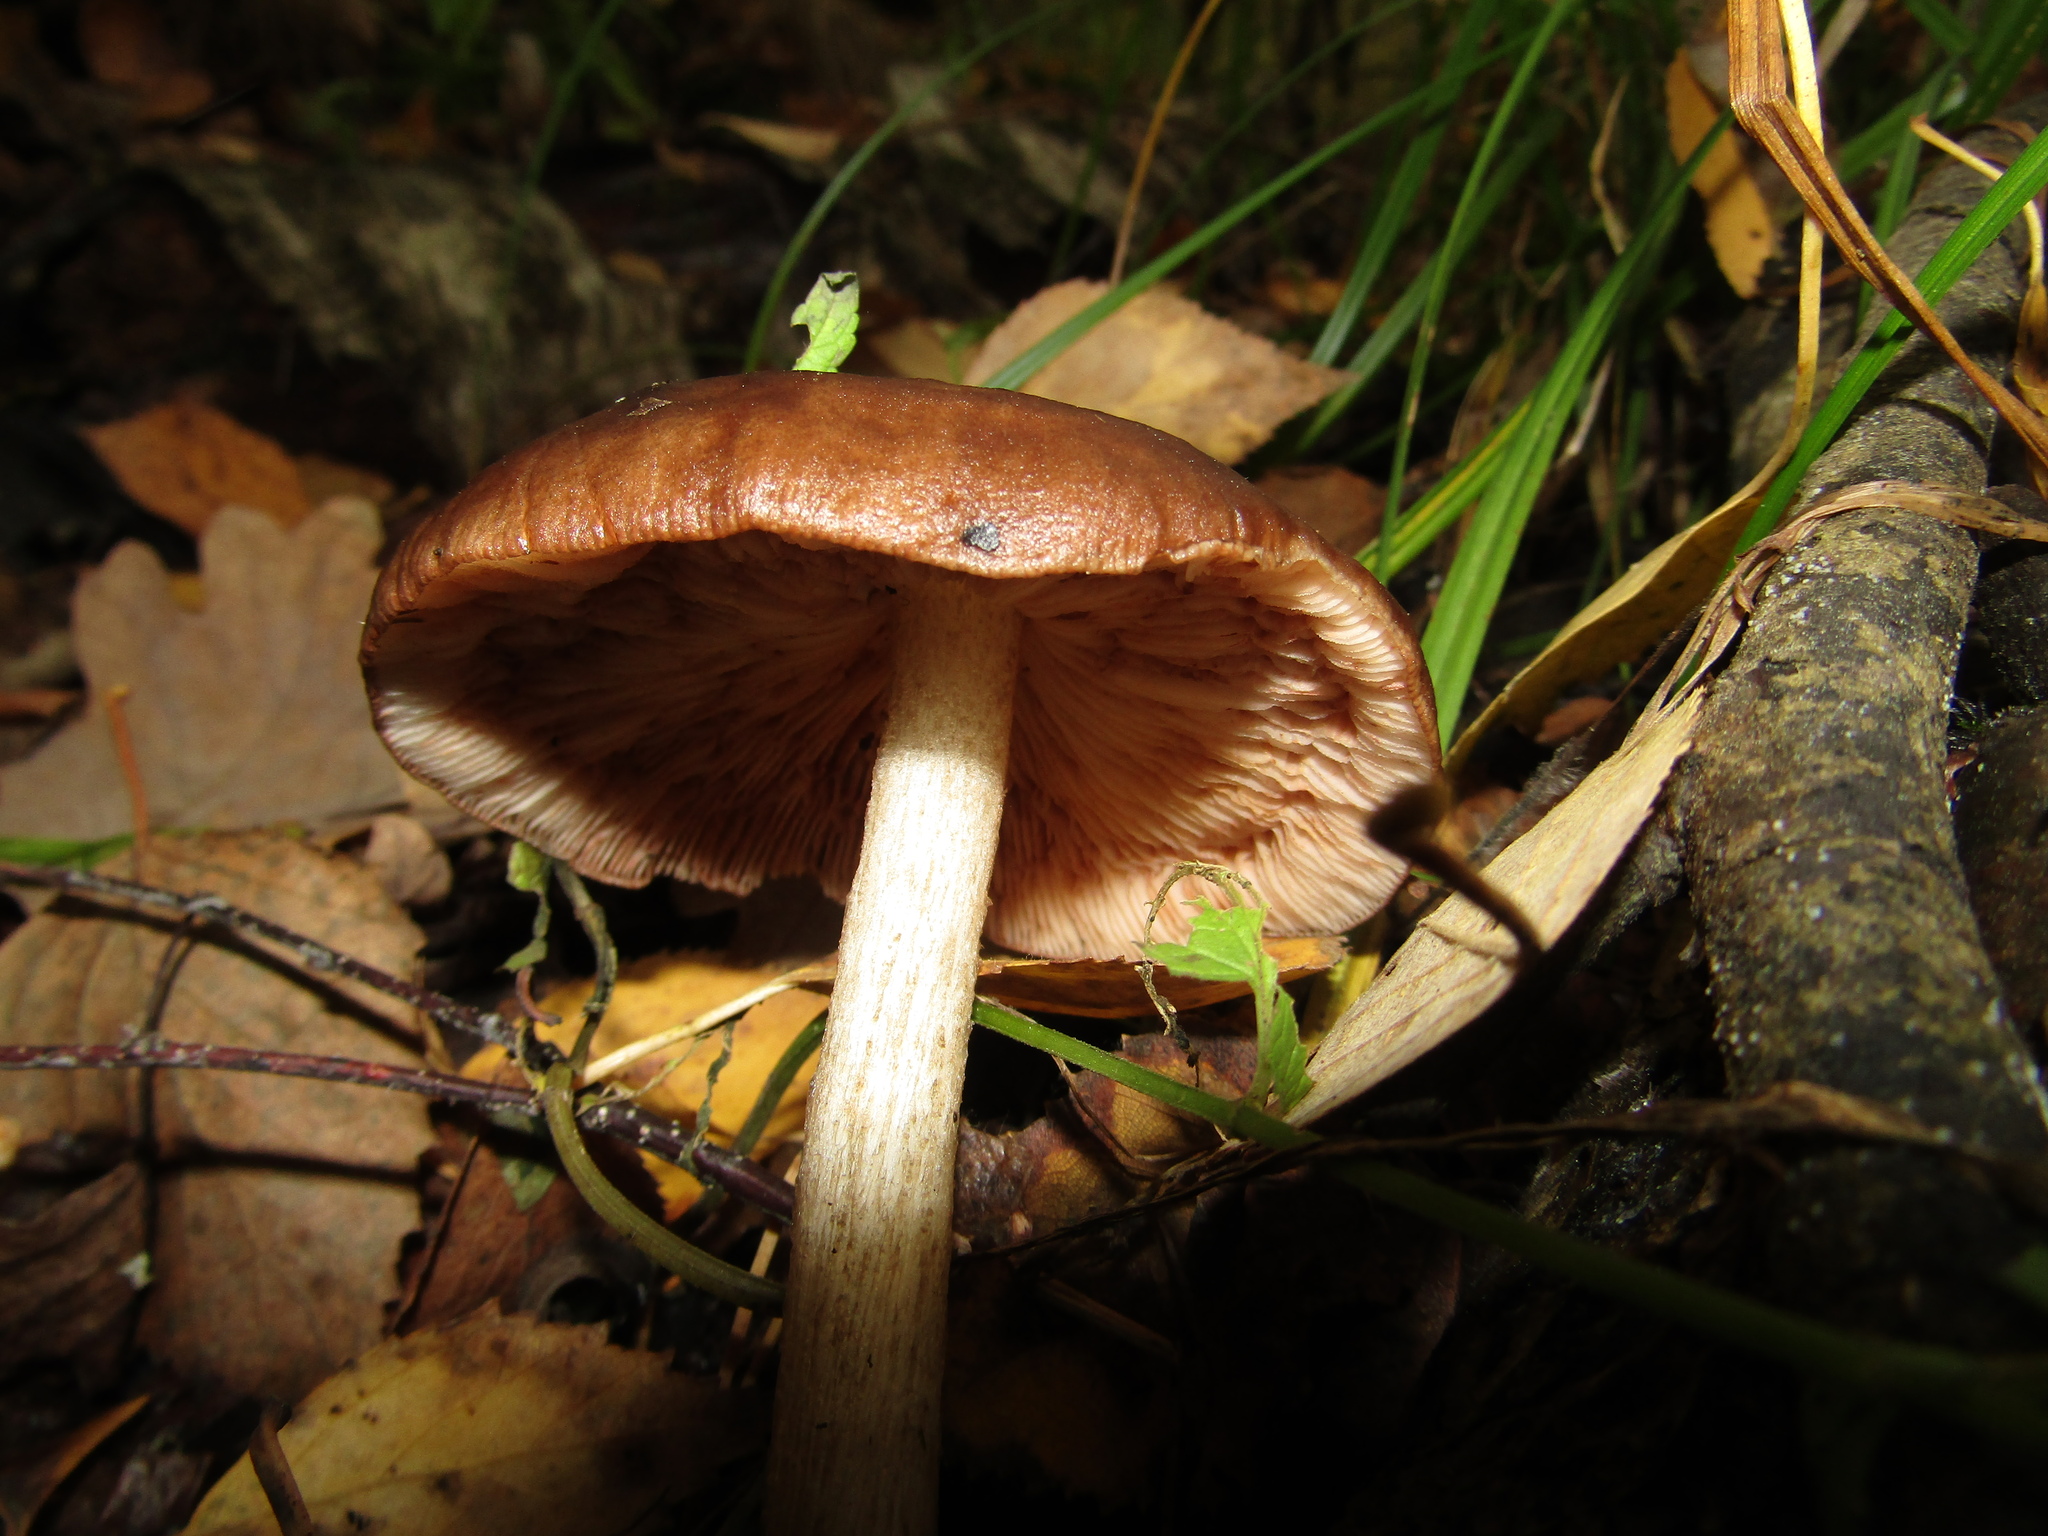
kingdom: Fungi
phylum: Basidiomycota
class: Agaricomycetes
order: Agaricales
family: Pluteaceae
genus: Pluteus
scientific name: Pluteus cervinus
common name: Deer shield
